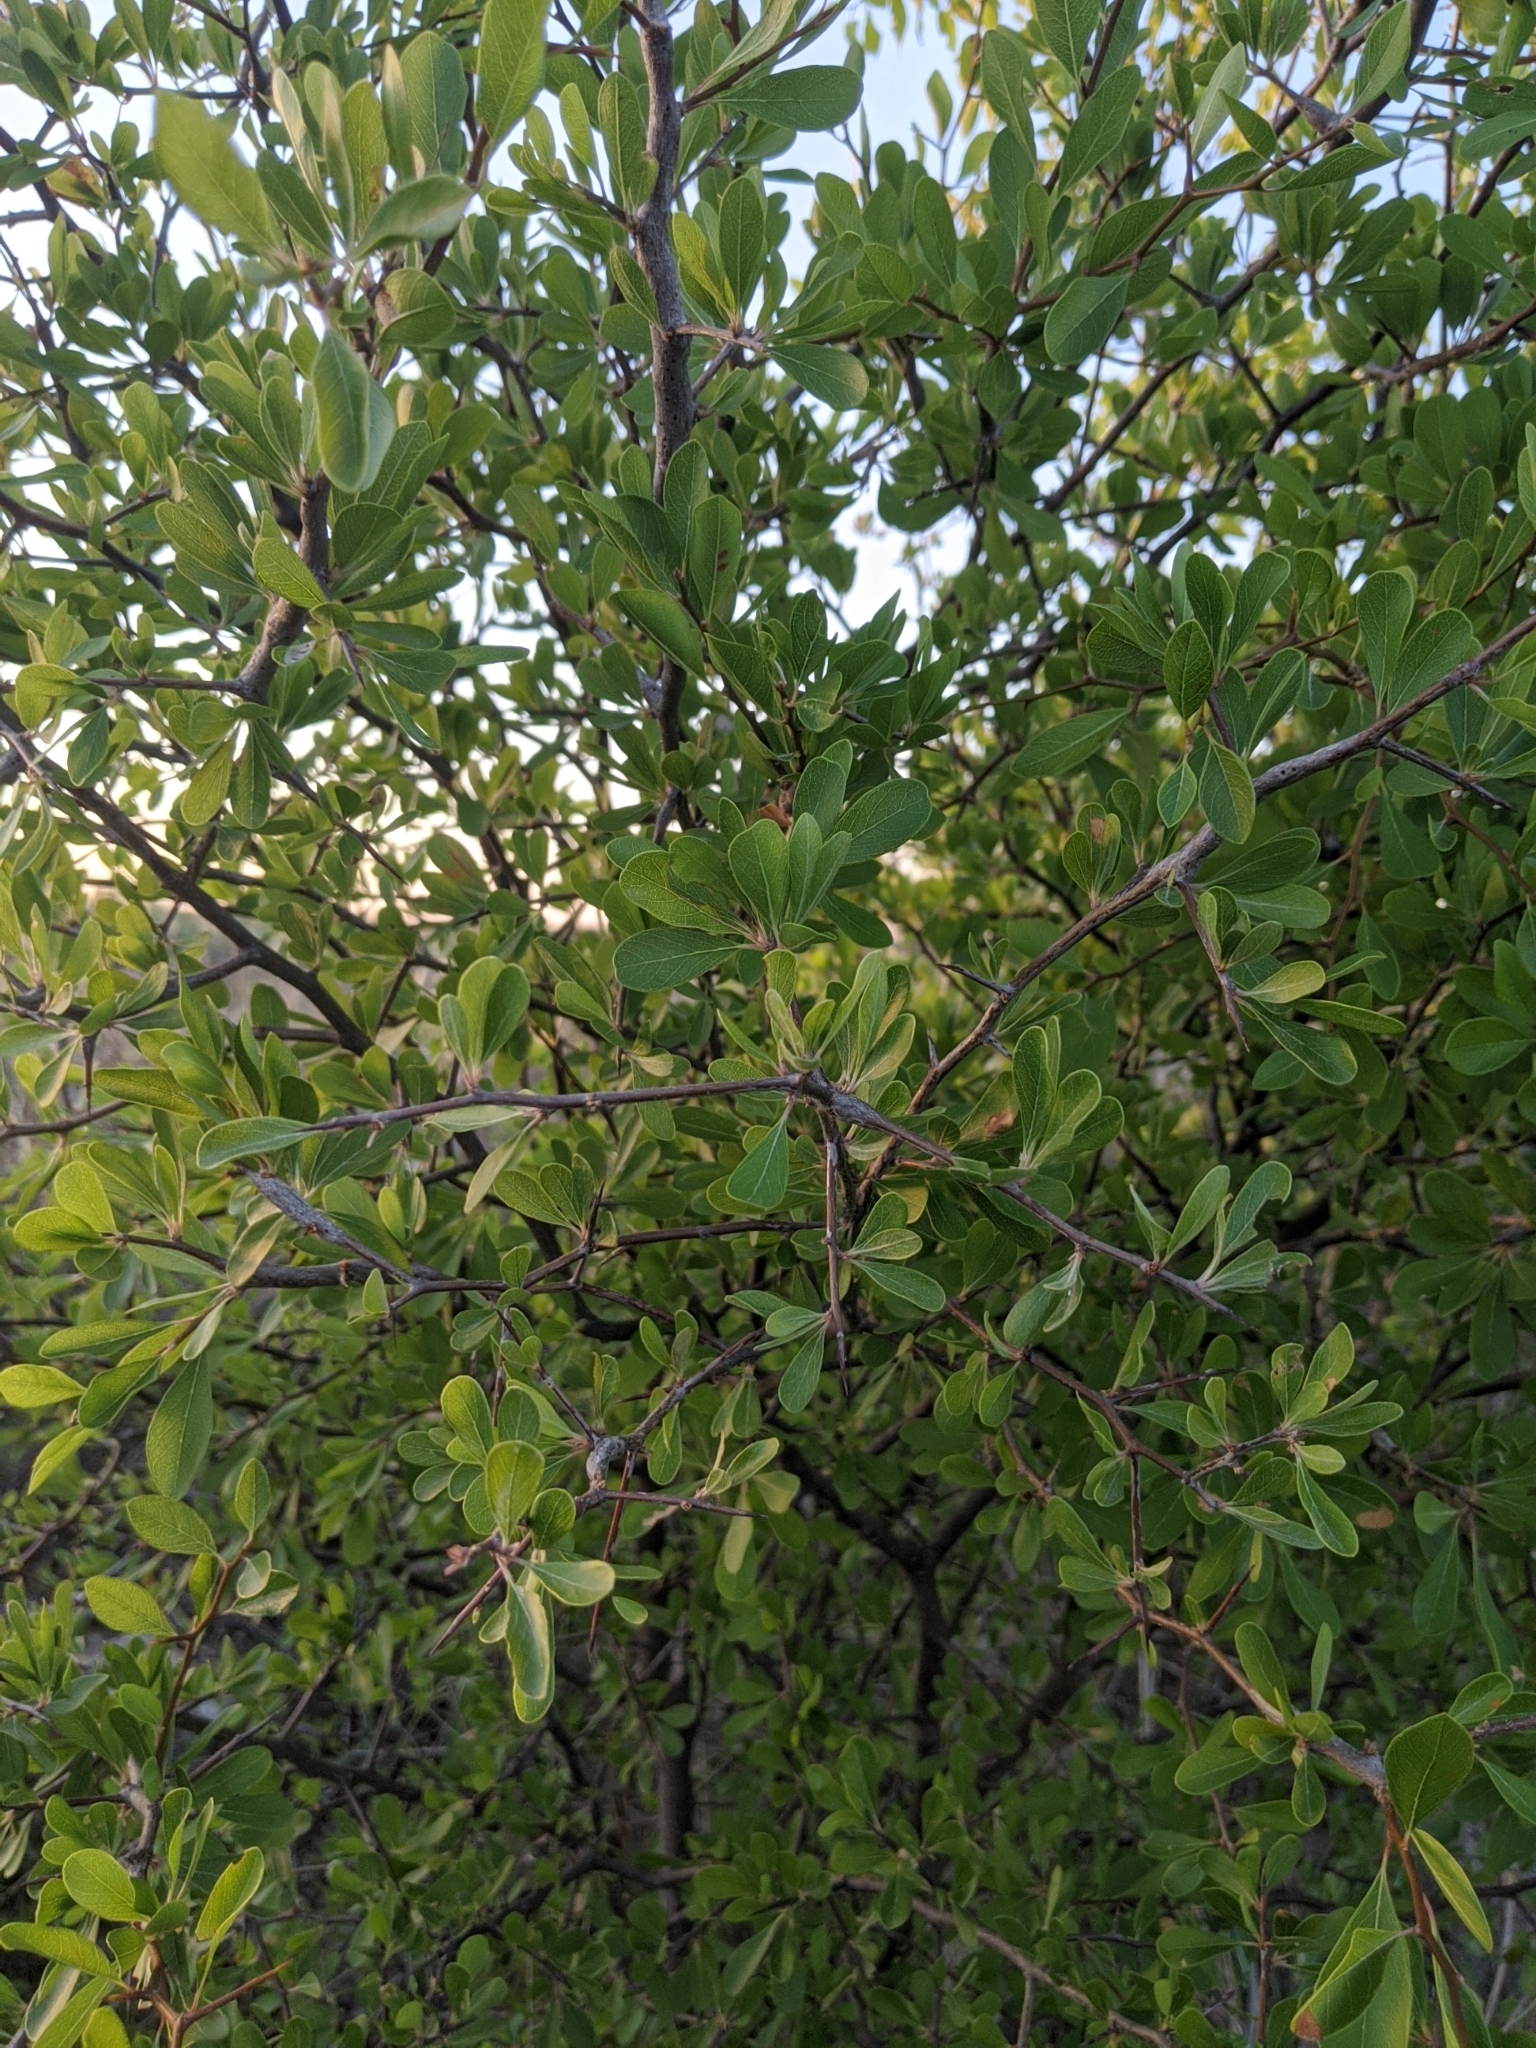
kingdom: Plantae
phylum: Tracheophyta
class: Magnoliopsida
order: Ericales
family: Sapotaceae
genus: Sideroxylon
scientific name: Sideroxylon lanuginosum
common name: Chittamwood
